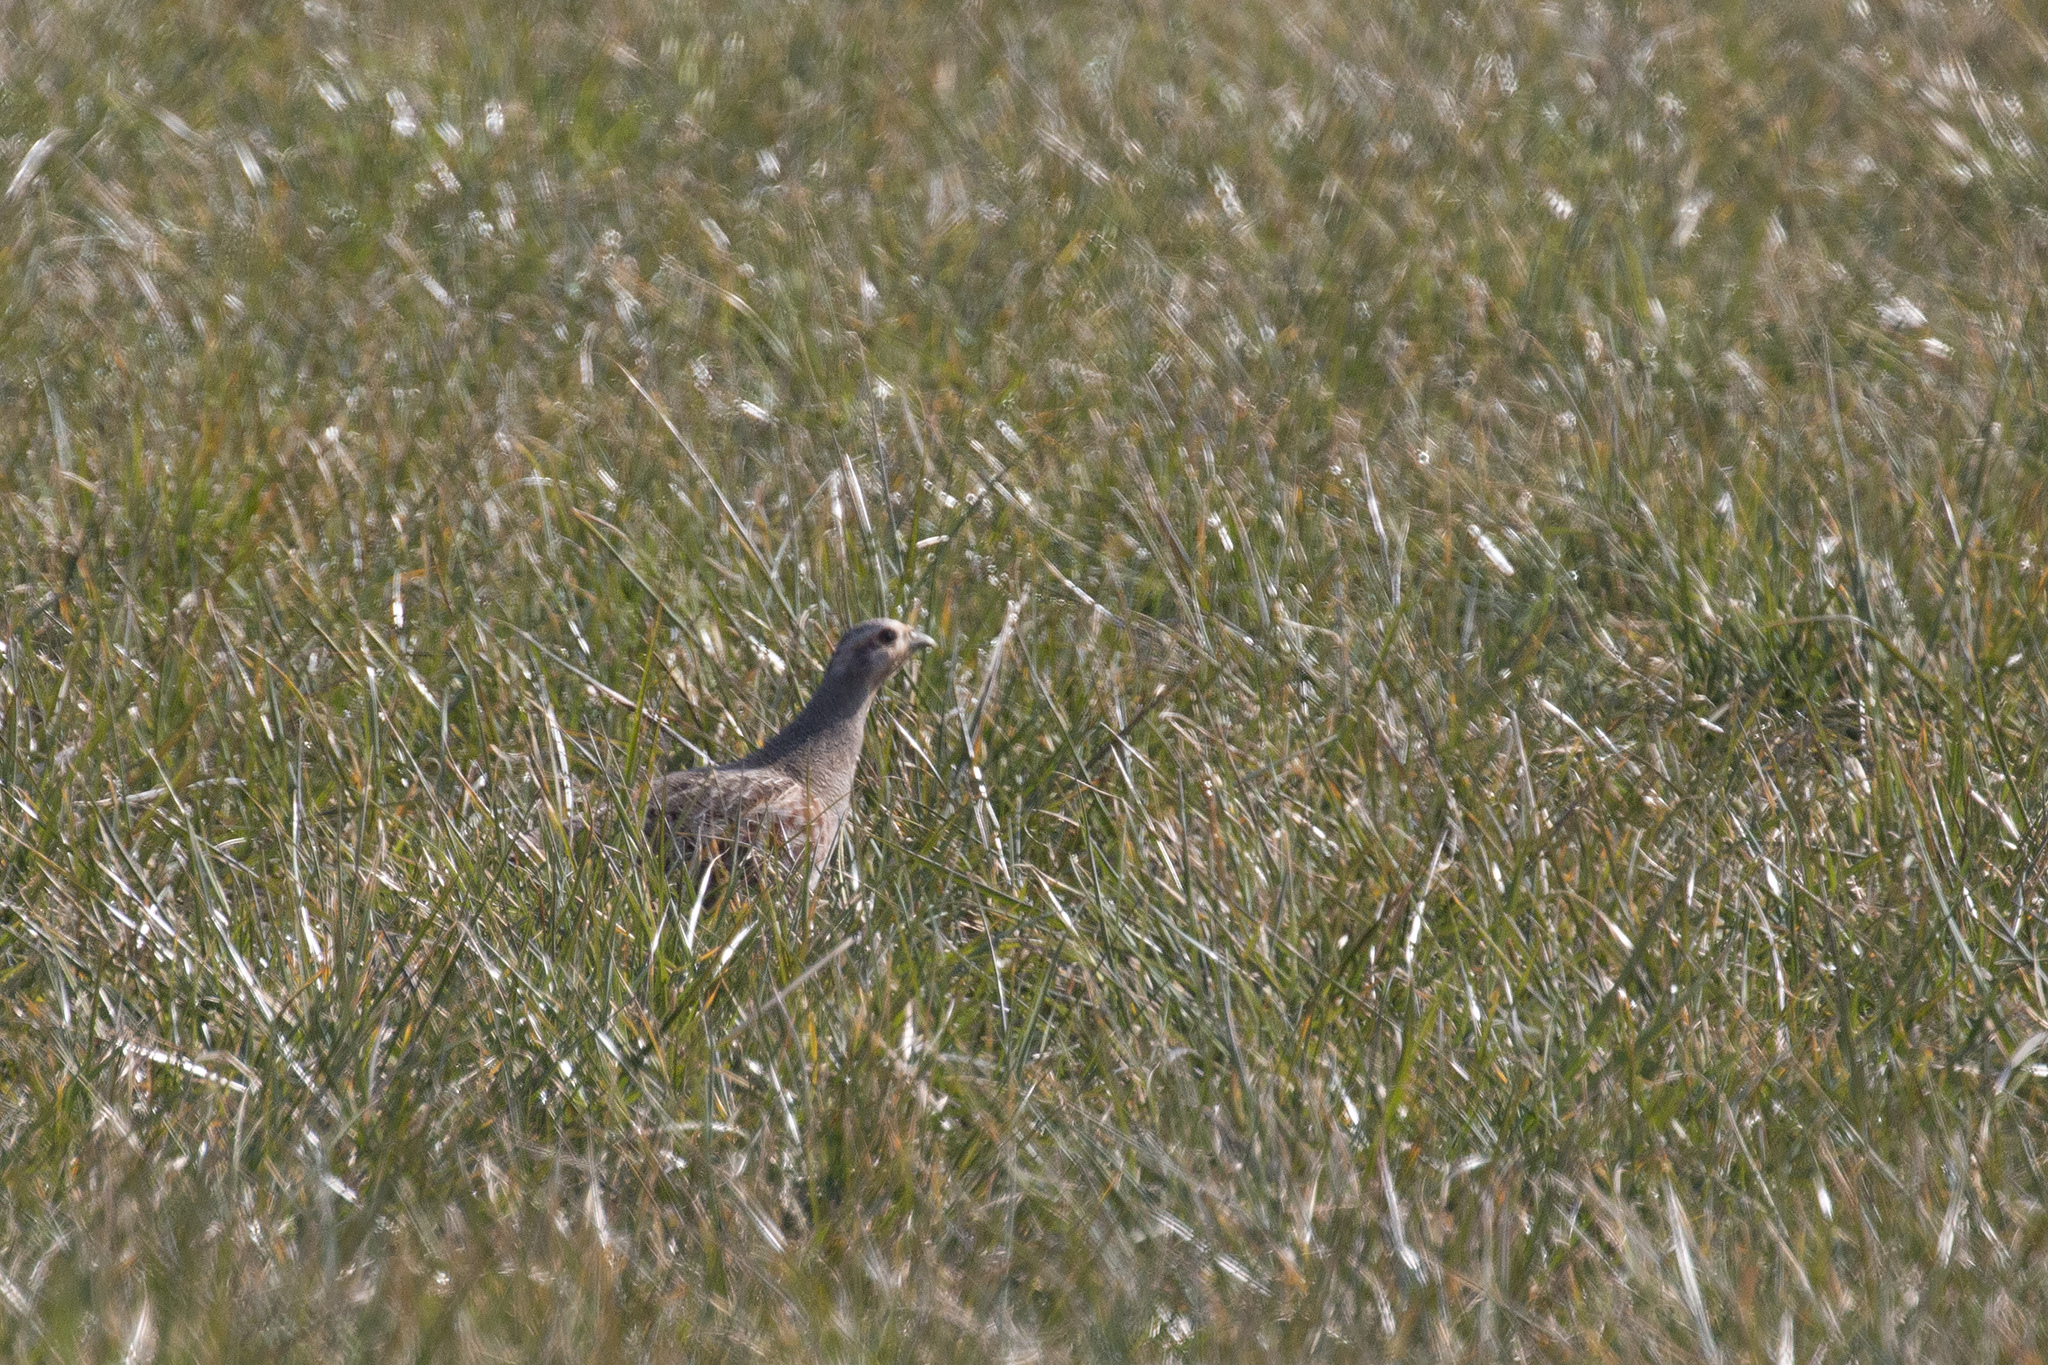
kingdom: Animalia
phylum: Chordata
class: Aves
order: Galliformes
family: Phasianidae
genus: Perdix
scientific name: Perdix perdix
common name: Grey partridge
